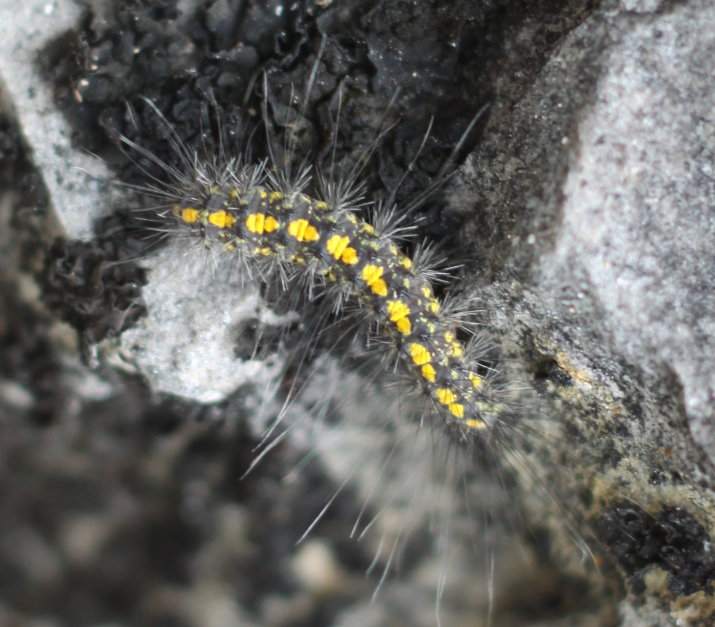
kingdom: Animalia
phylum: Arthropoda
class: Insecta
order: Lepidoptera
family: Erebidae
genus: Setina
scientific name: Setina irrorella
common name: Dew moth
